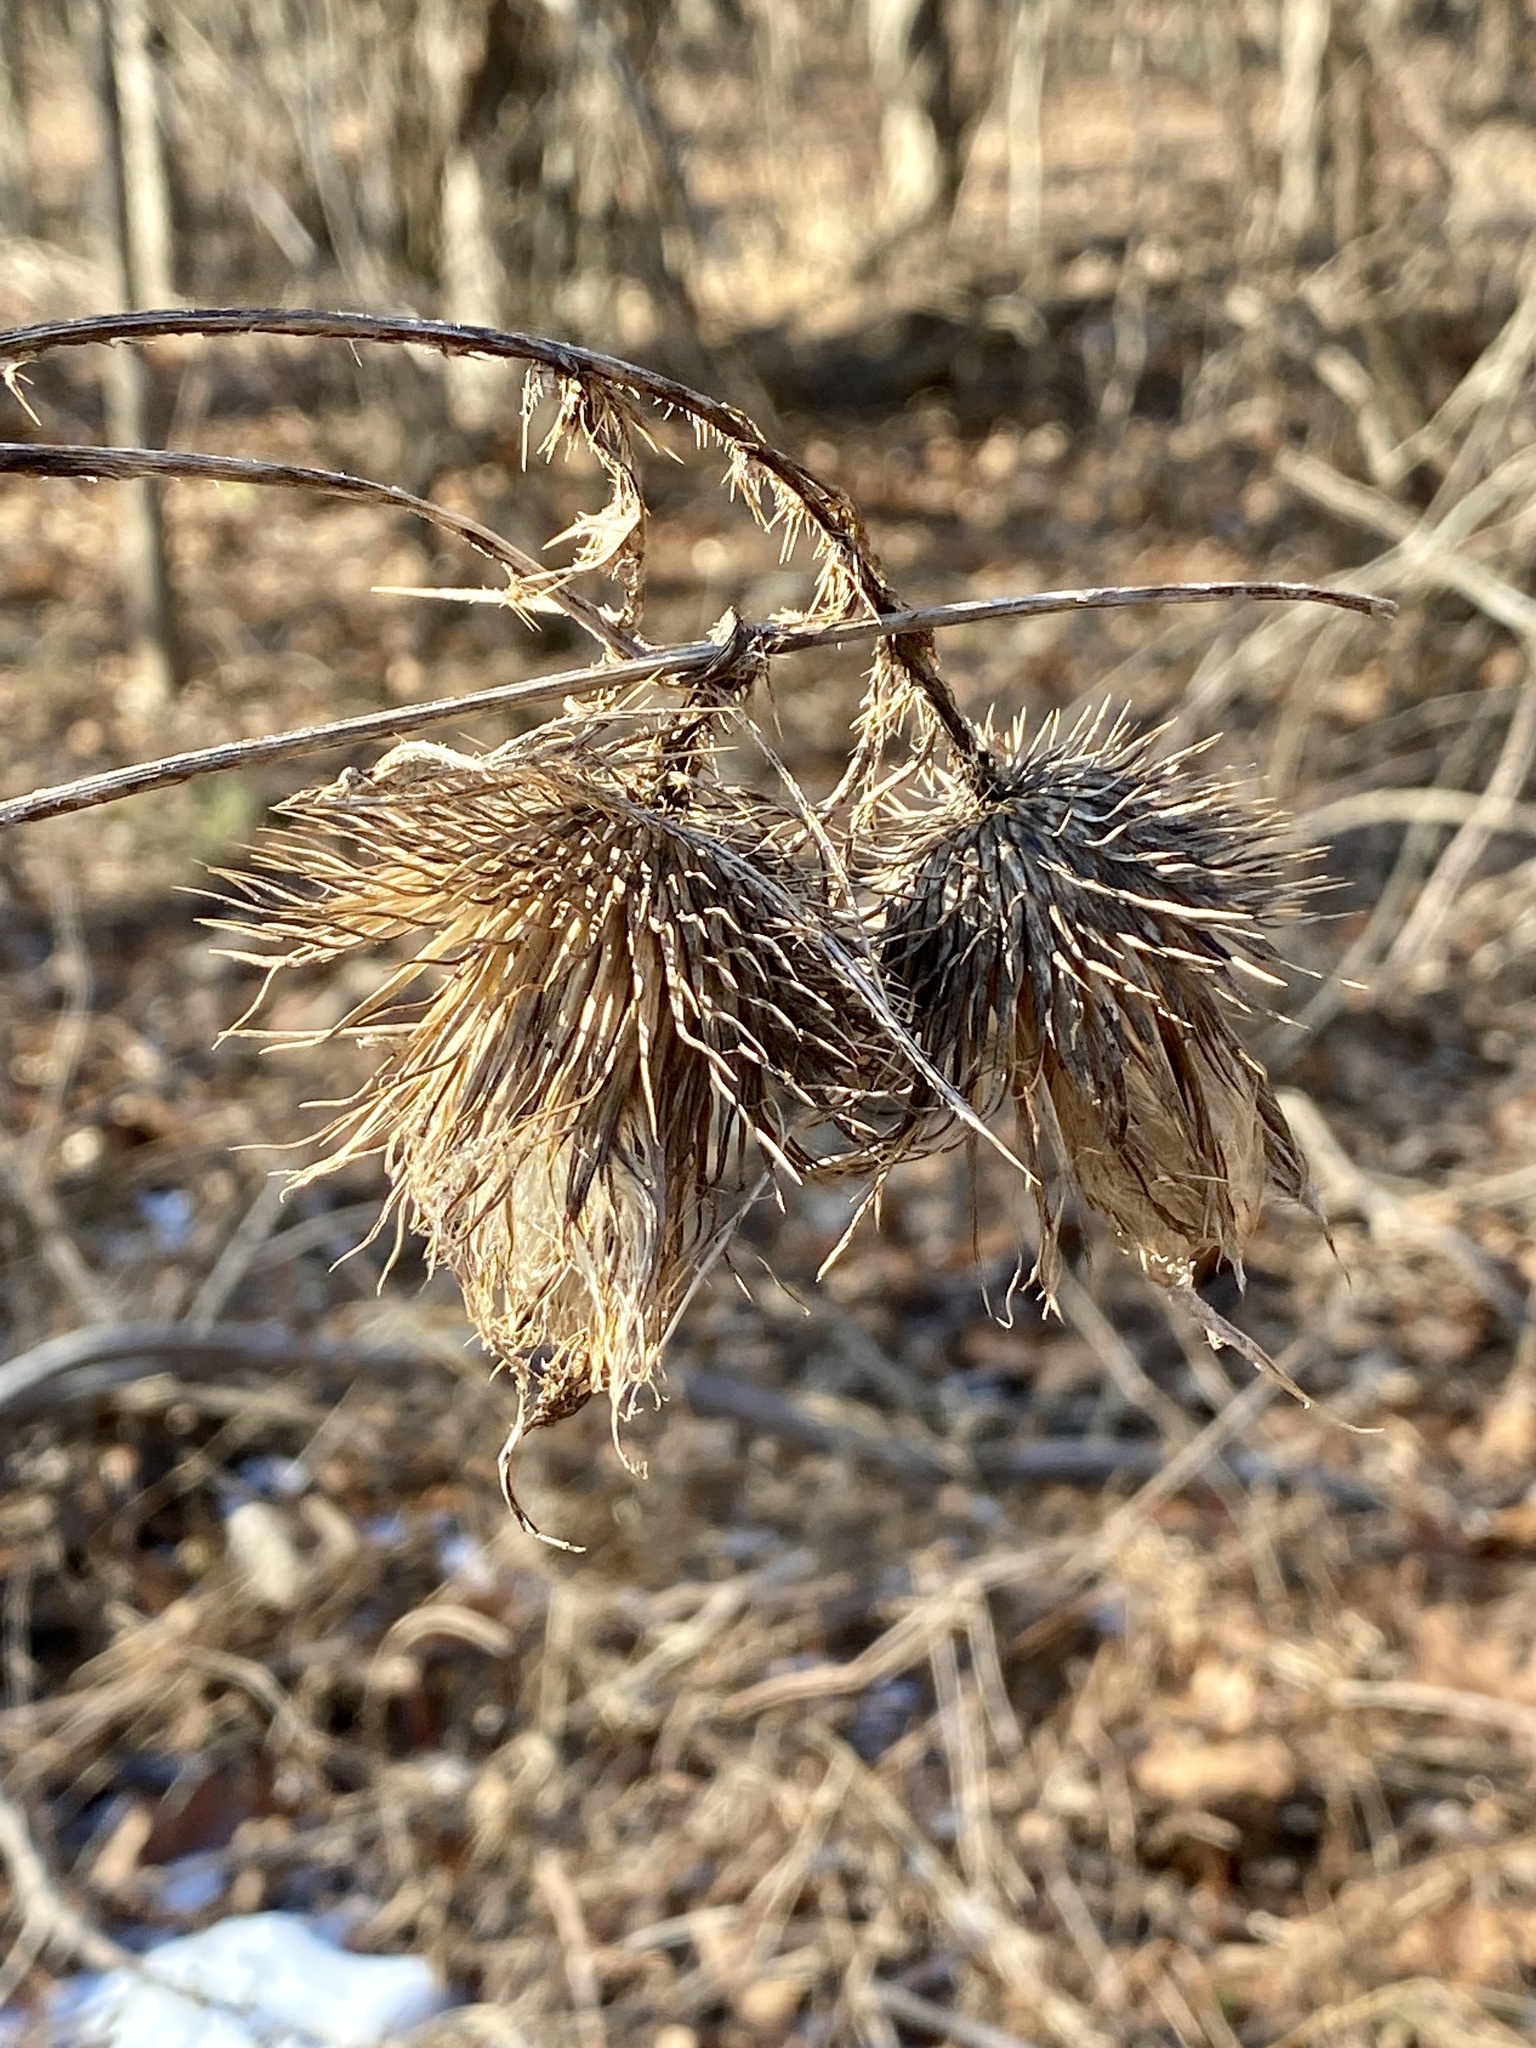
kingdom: Plantae
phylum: Tracheophyta
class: Magnoliopsida
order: Asterales
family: Asteraceae
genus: Cirsium
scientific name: Cirsium vulgare
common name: Bull thistle
